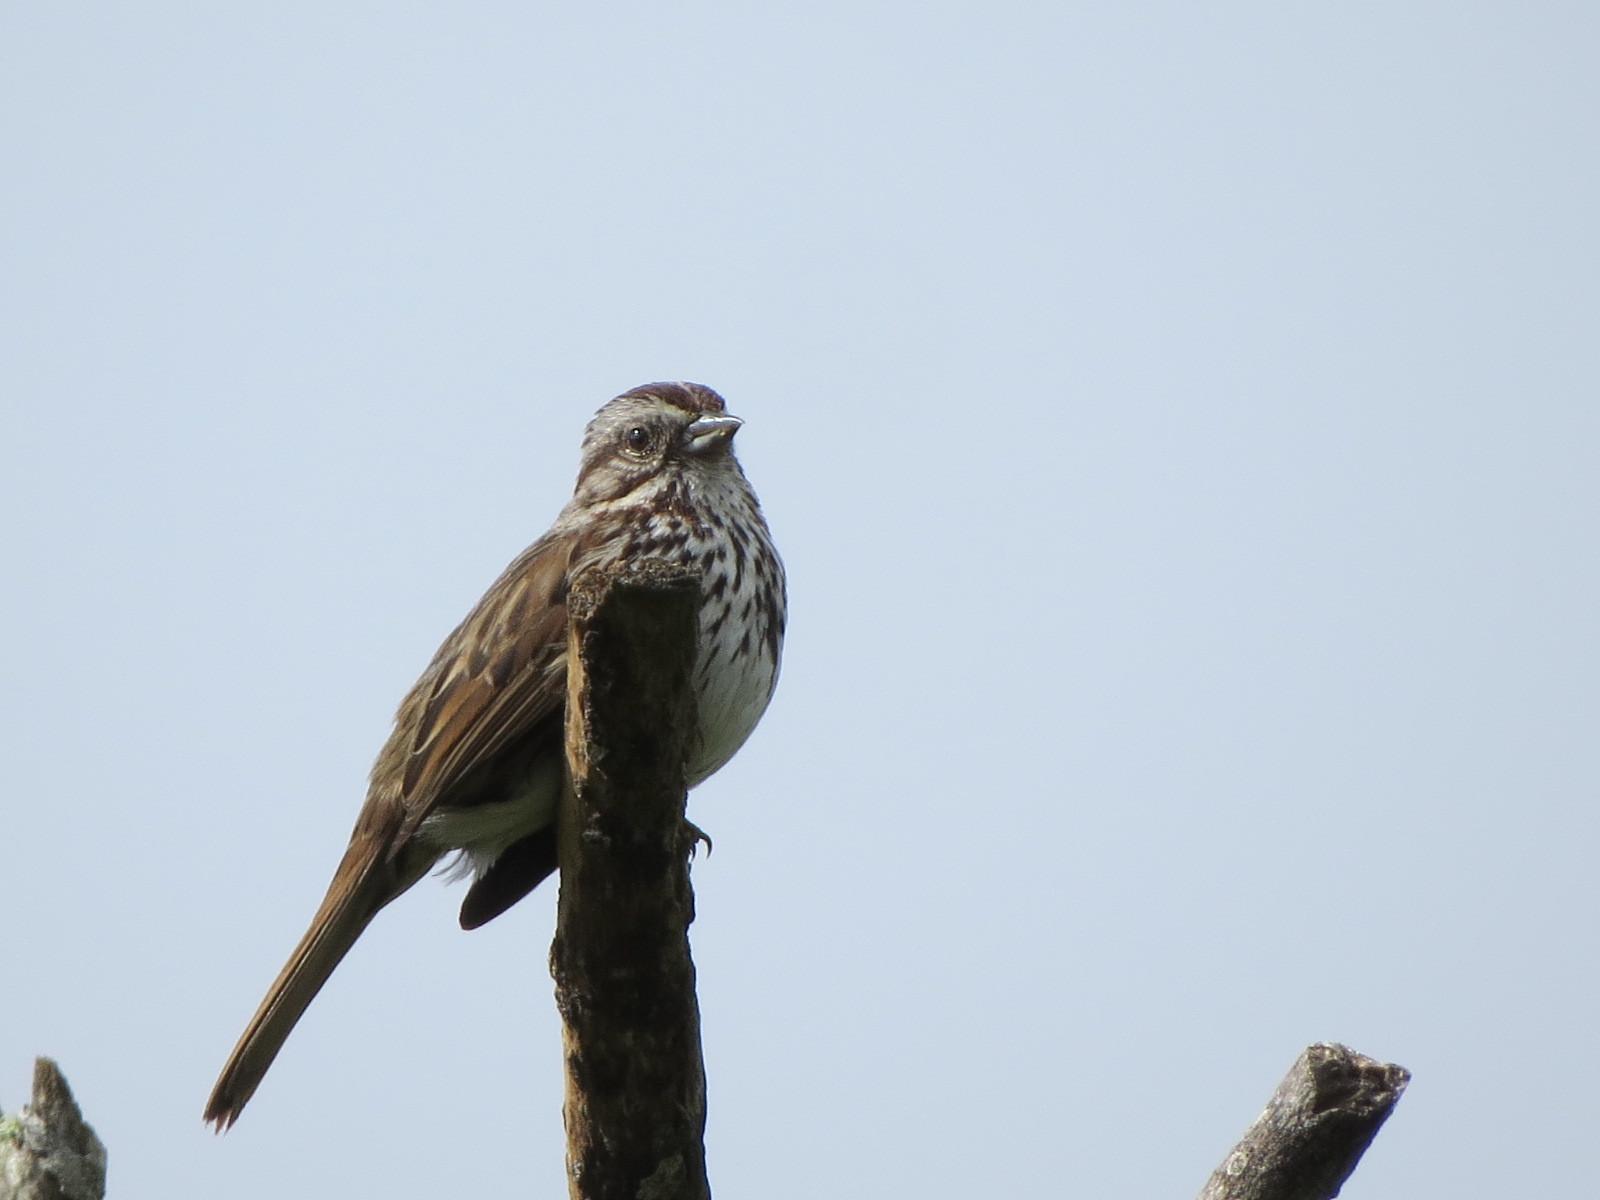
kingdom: Animalia
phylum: Chordata
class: Aves
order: Passeriformes
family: Passerellidae
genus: Melospiza
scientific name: Melospiza melodia
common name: Song sparrow
